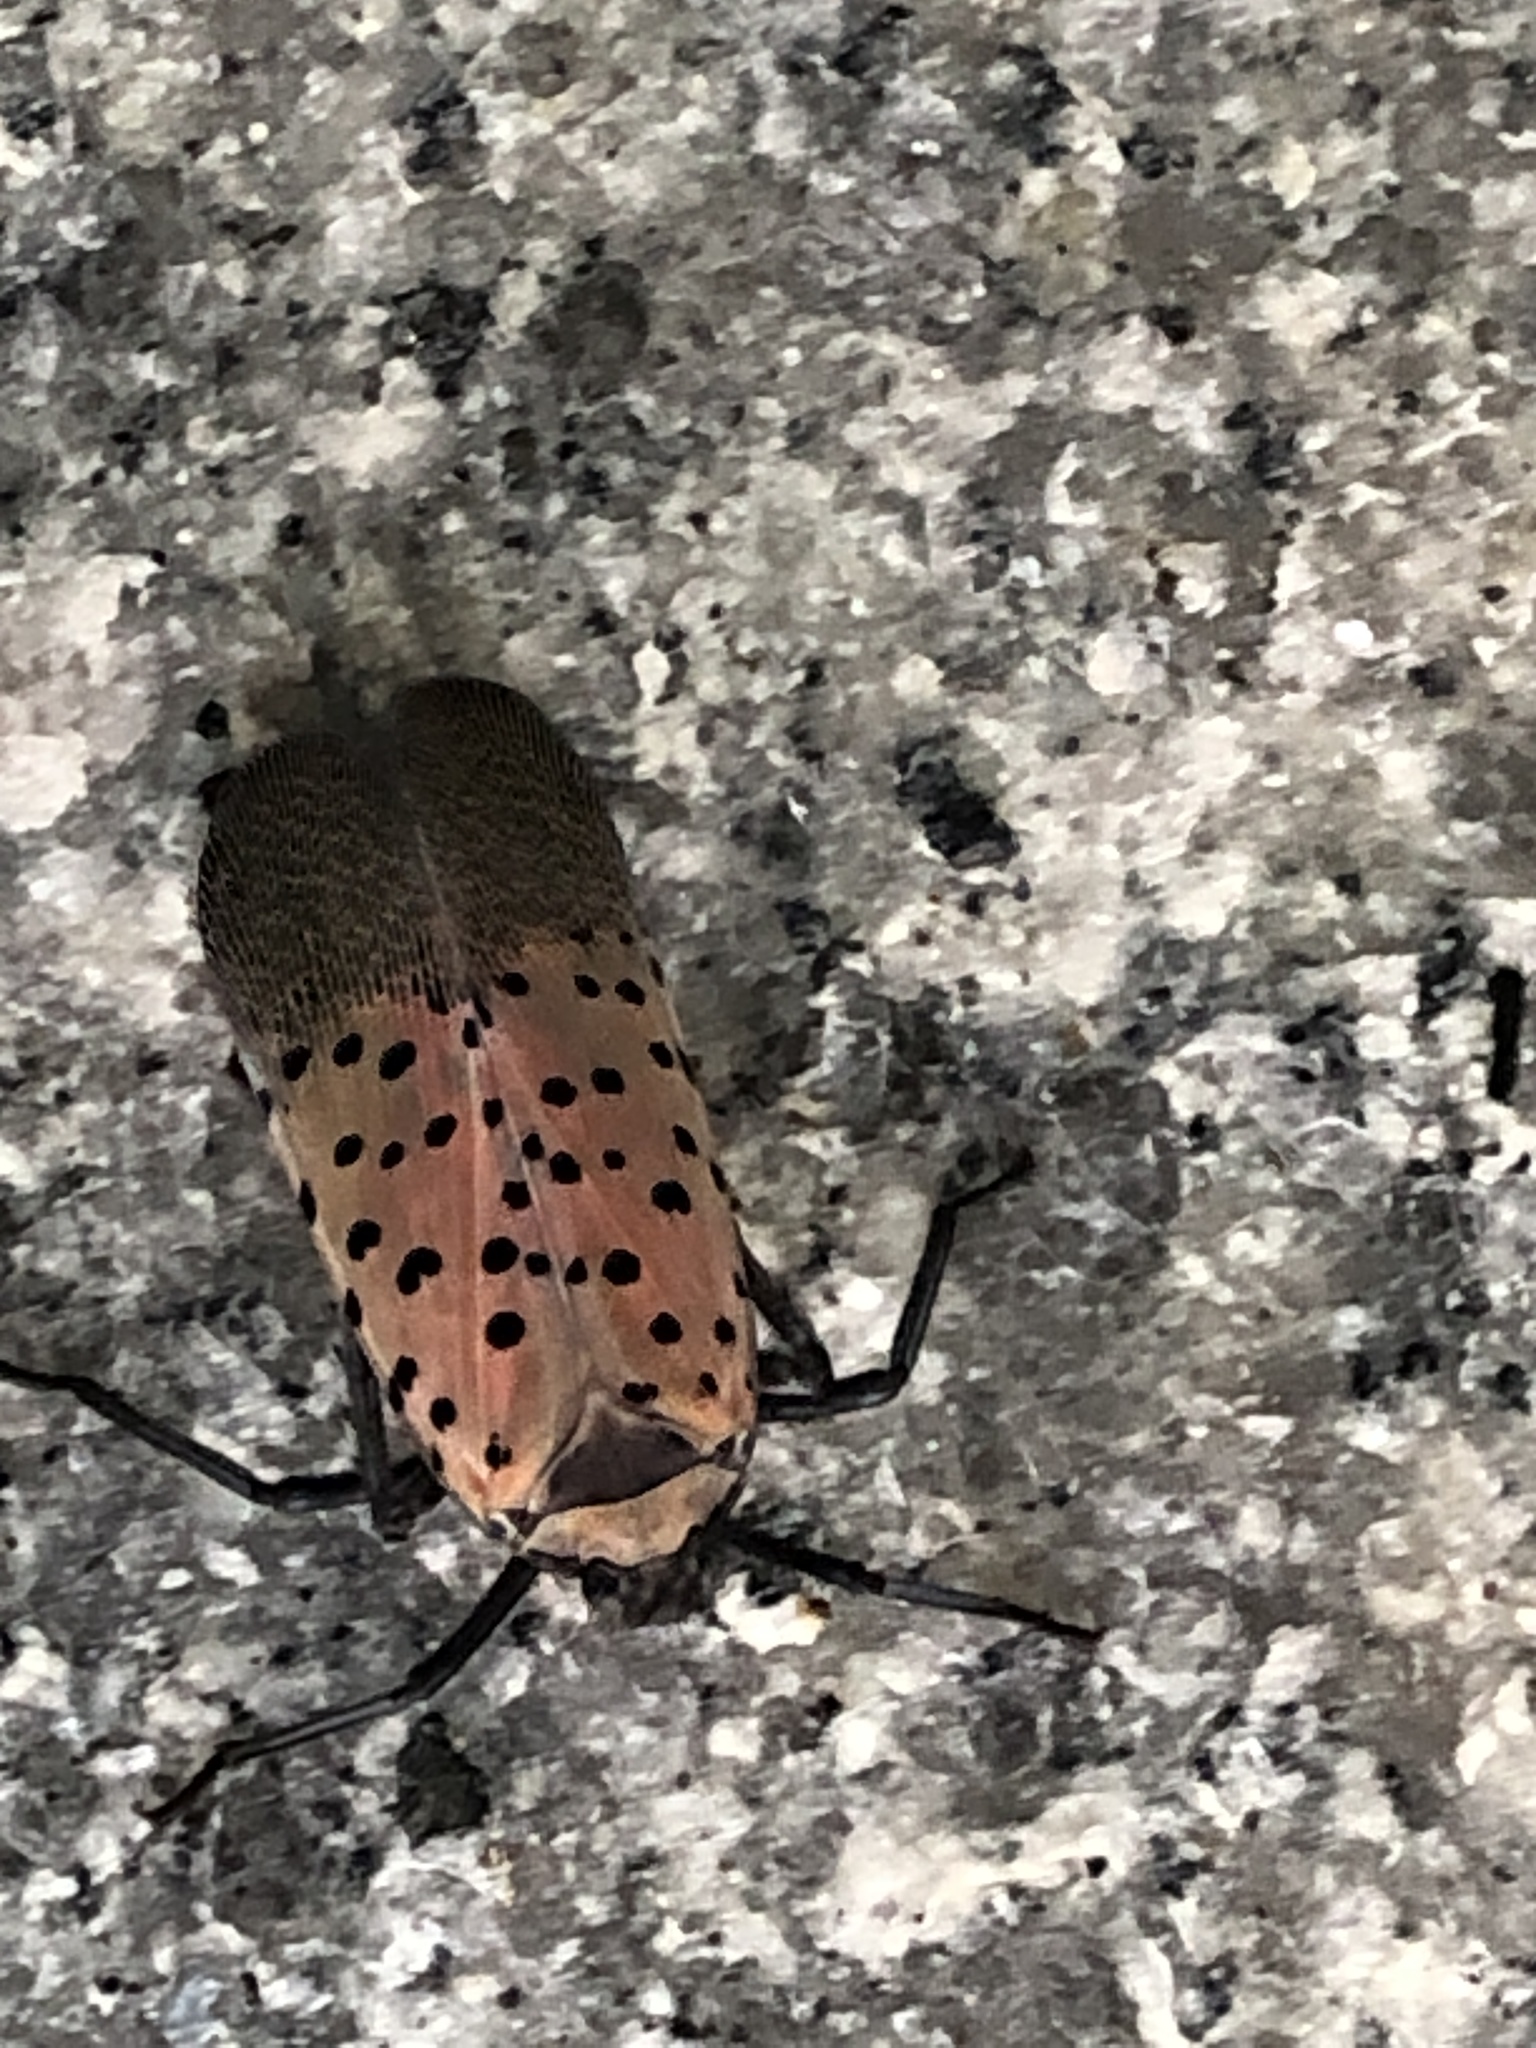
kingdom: Animalia
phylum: Arthropoda
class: Insecta
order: Hemiptera
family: Fulgoridae
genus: Lycorma
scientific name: Lycorma delicatula
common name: Spotted lanternfly
